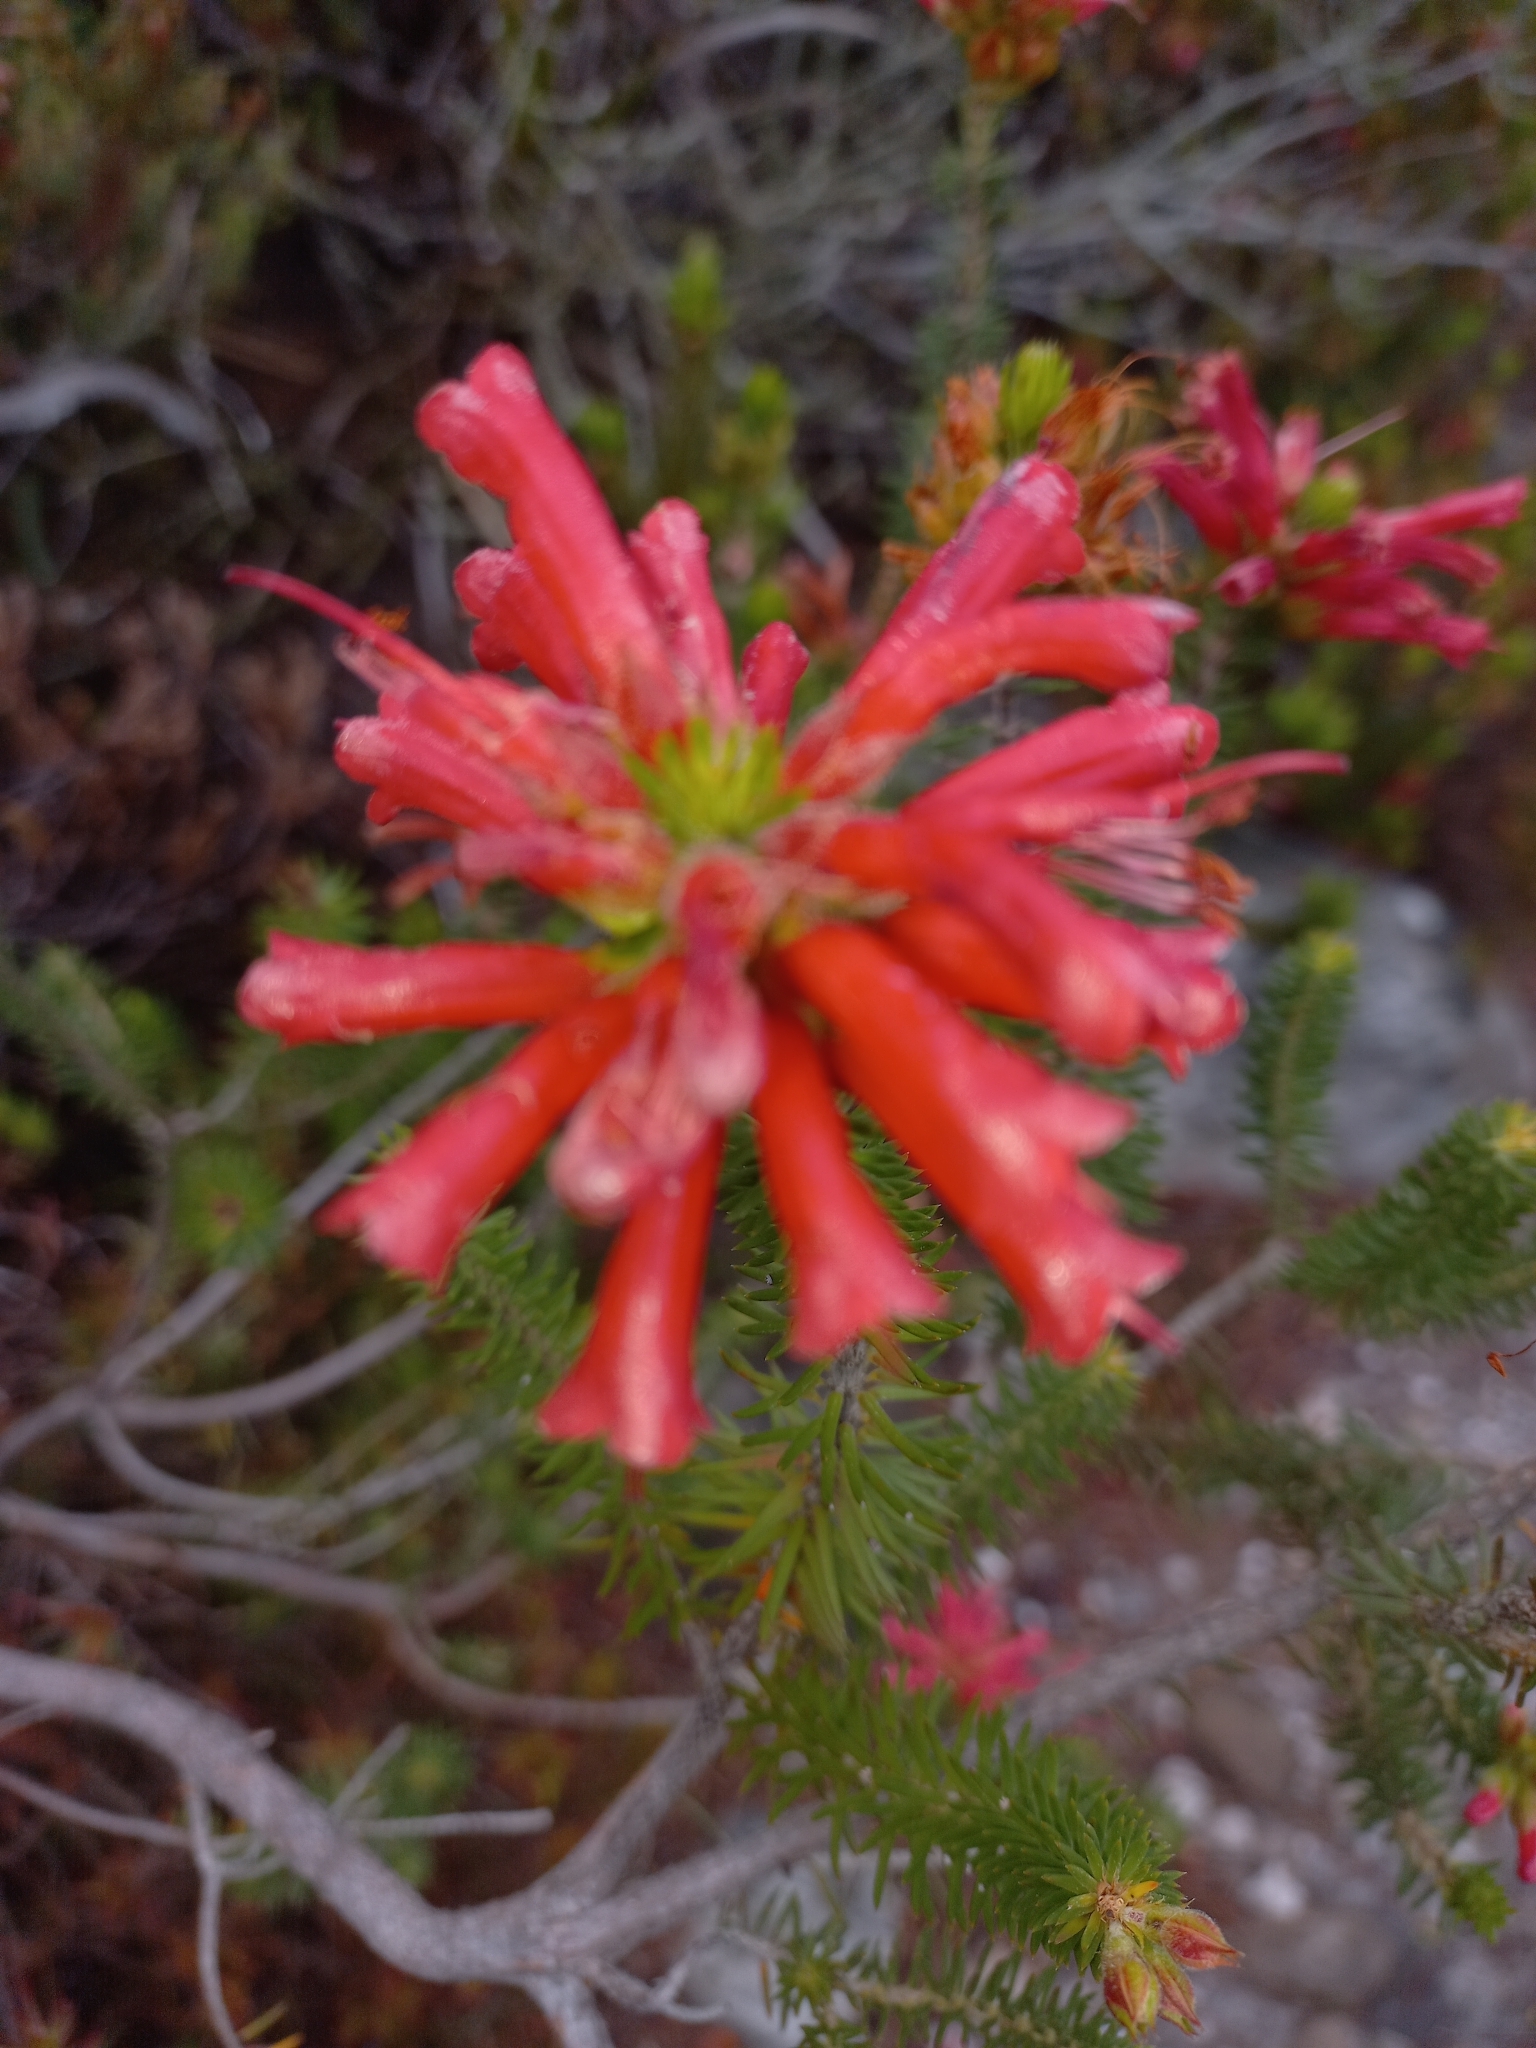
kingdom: Plantae
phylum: Tracheophyta
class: Magnoliopsida
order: Ericales
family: Ericaceae
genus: Erica
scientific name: Erica abietina
